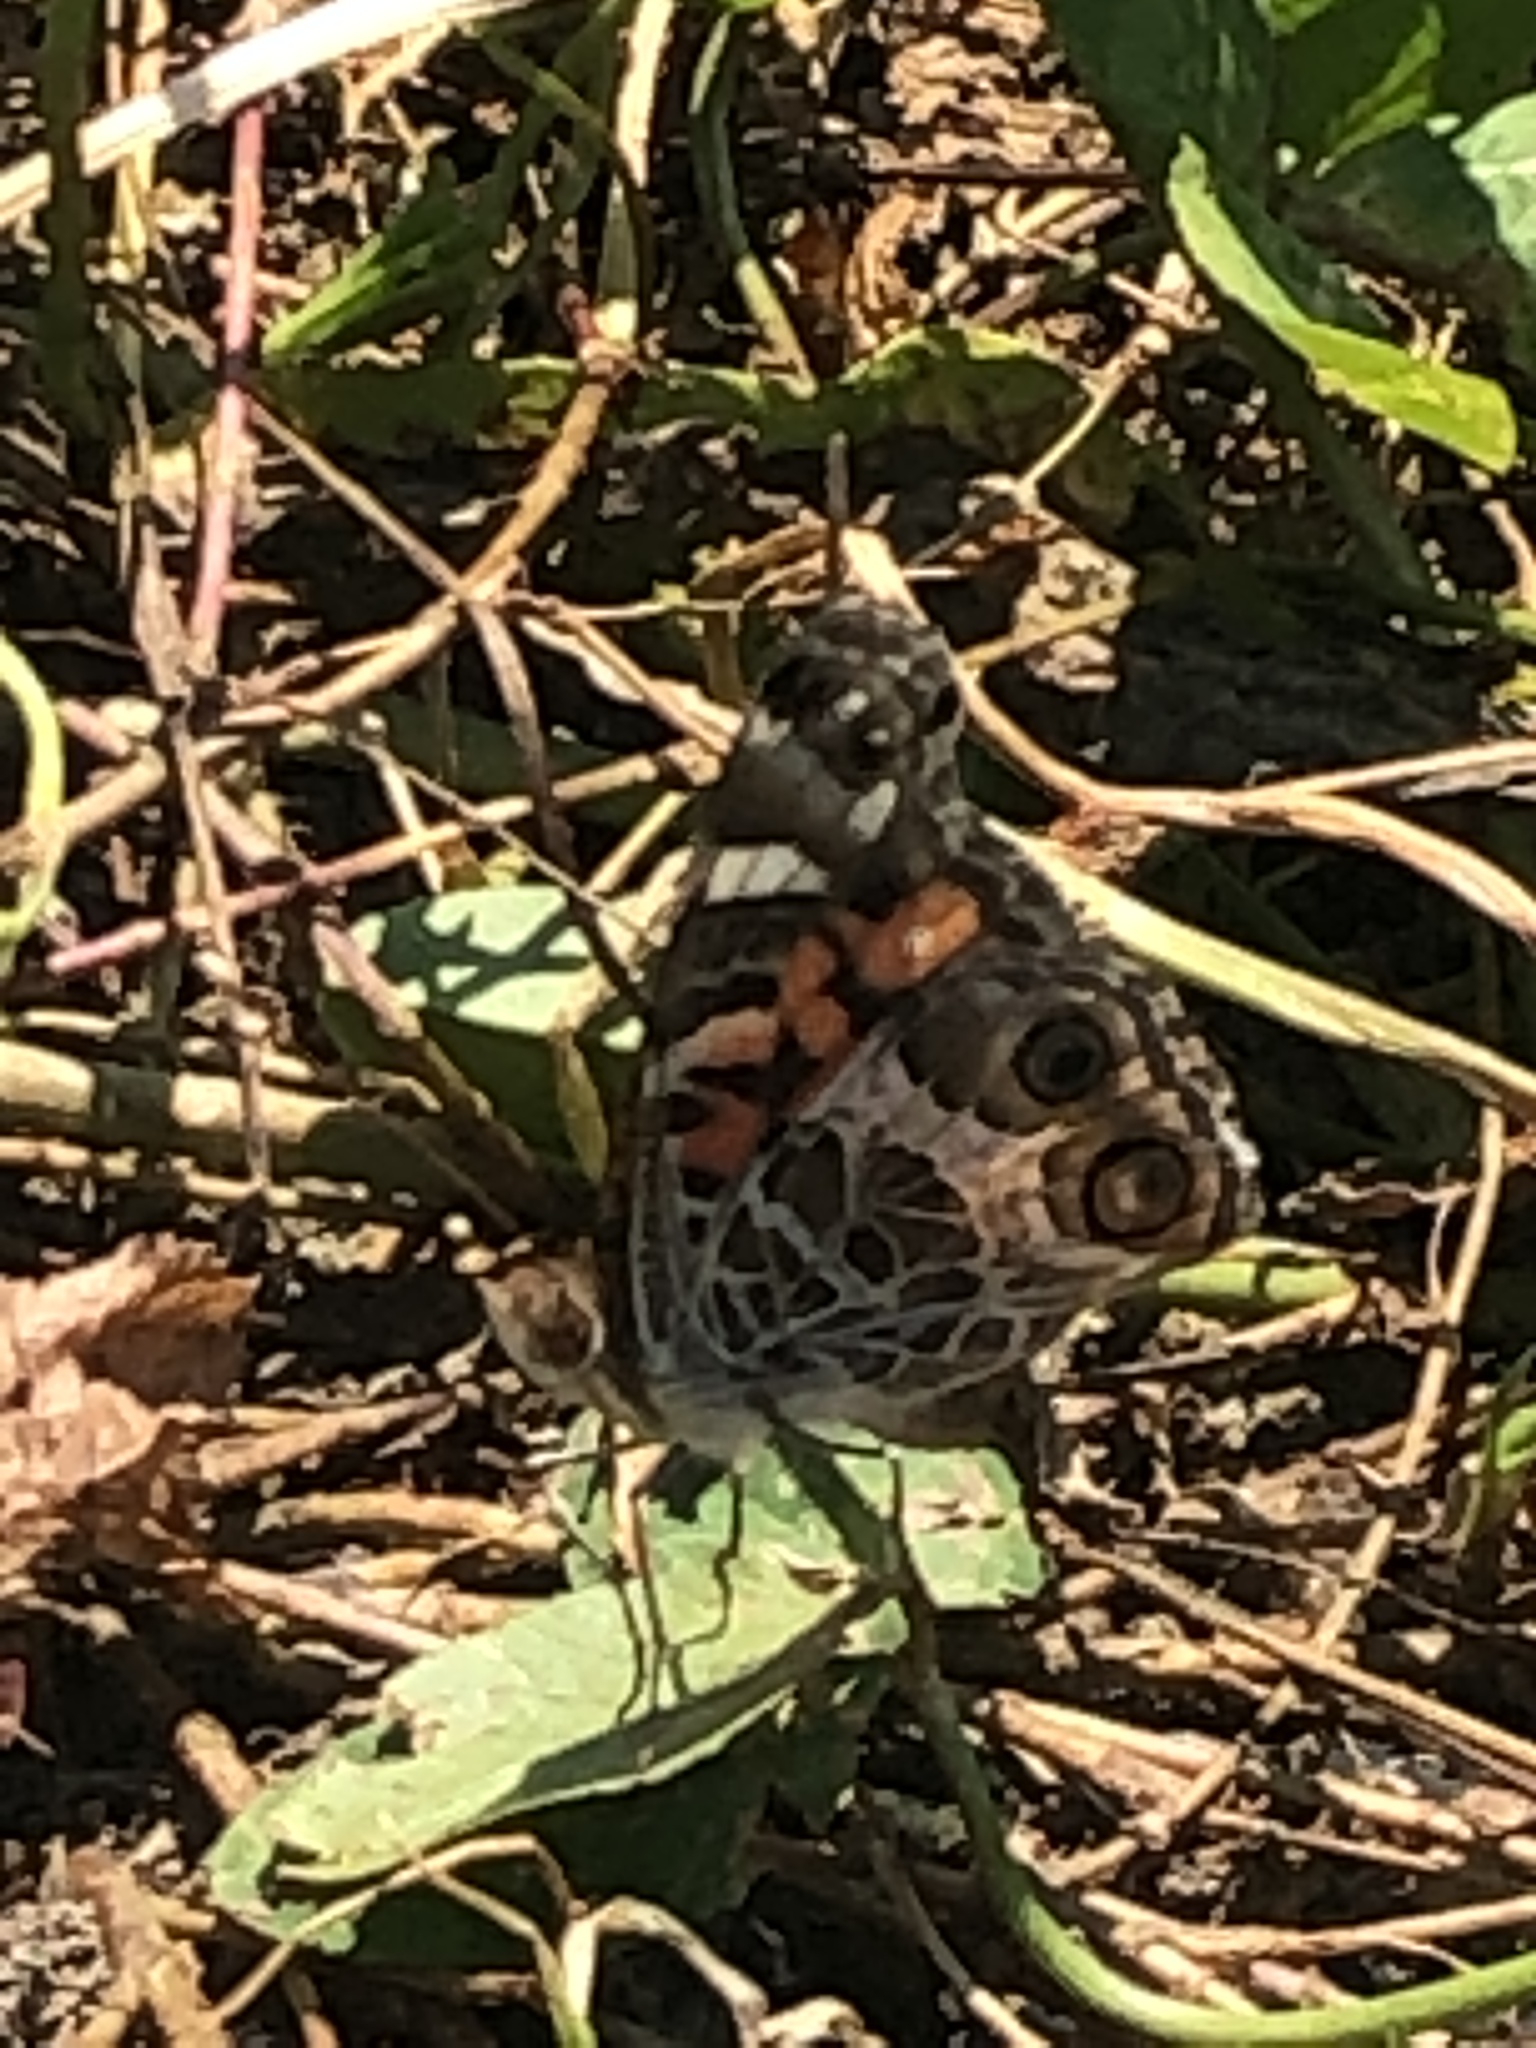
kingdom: Animalia
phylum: Arthropoda
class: Insecta
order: Lepidoptera
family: Nymphalidae
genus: Vanessa
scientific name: Vanessa virginiensis
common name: American lady
